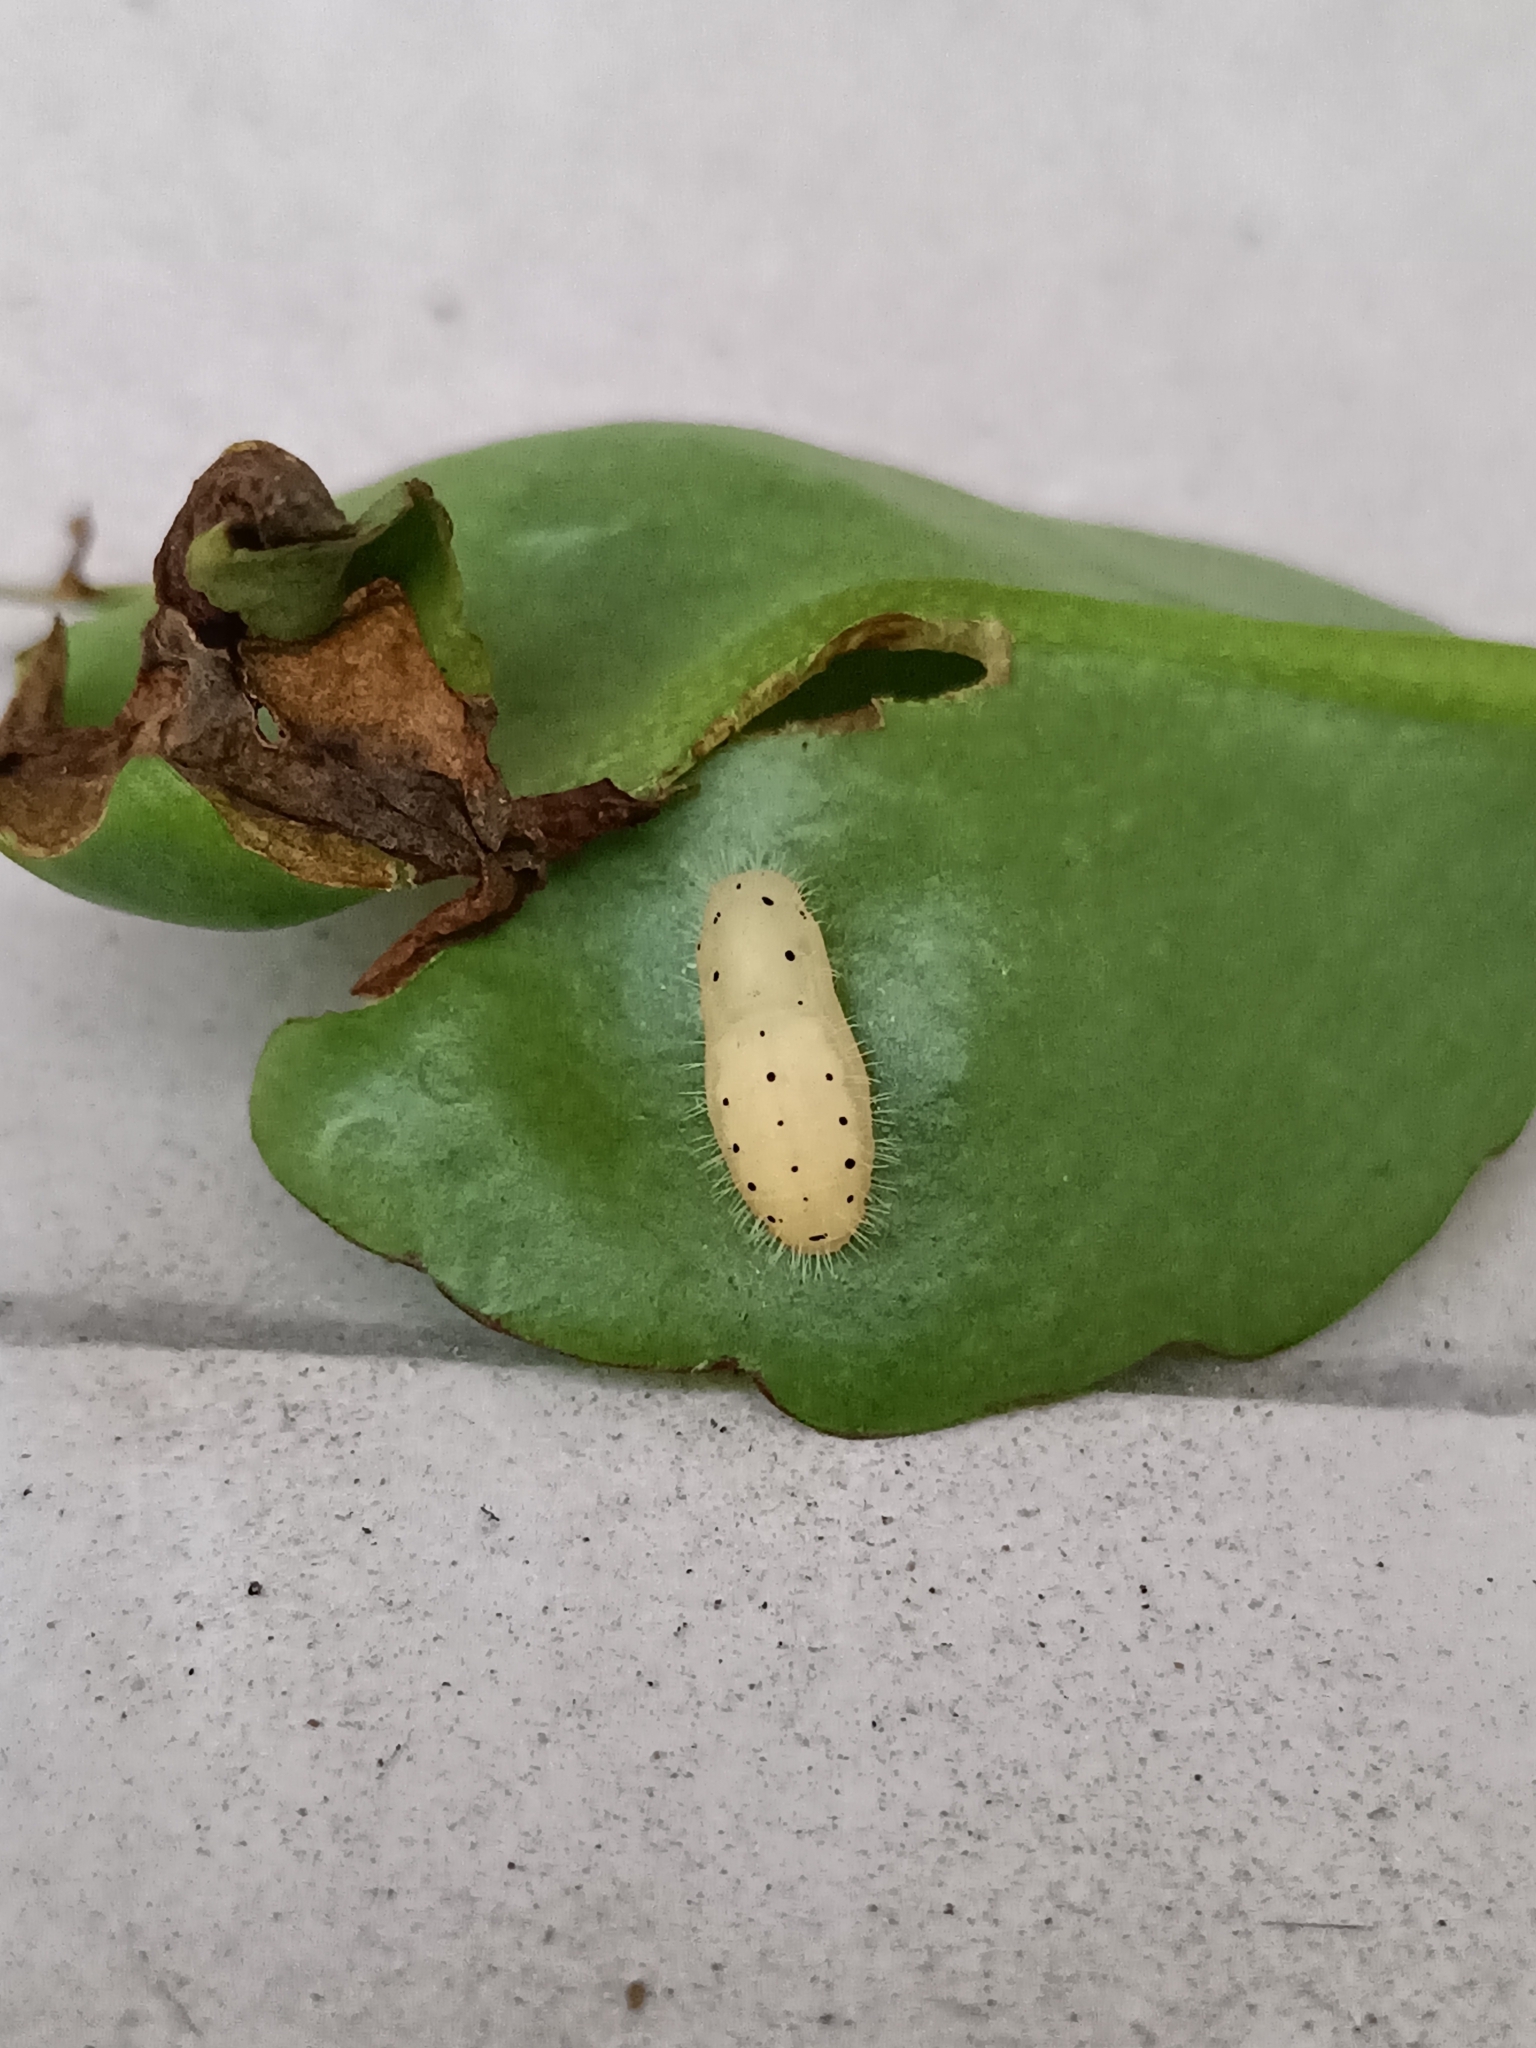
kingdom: Animalia
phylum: Arthropoda
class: Insecta
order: Lepidoptera
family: Lycaenidae
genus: Talicada
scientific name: Talicada nyseus
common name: Red pierrot
